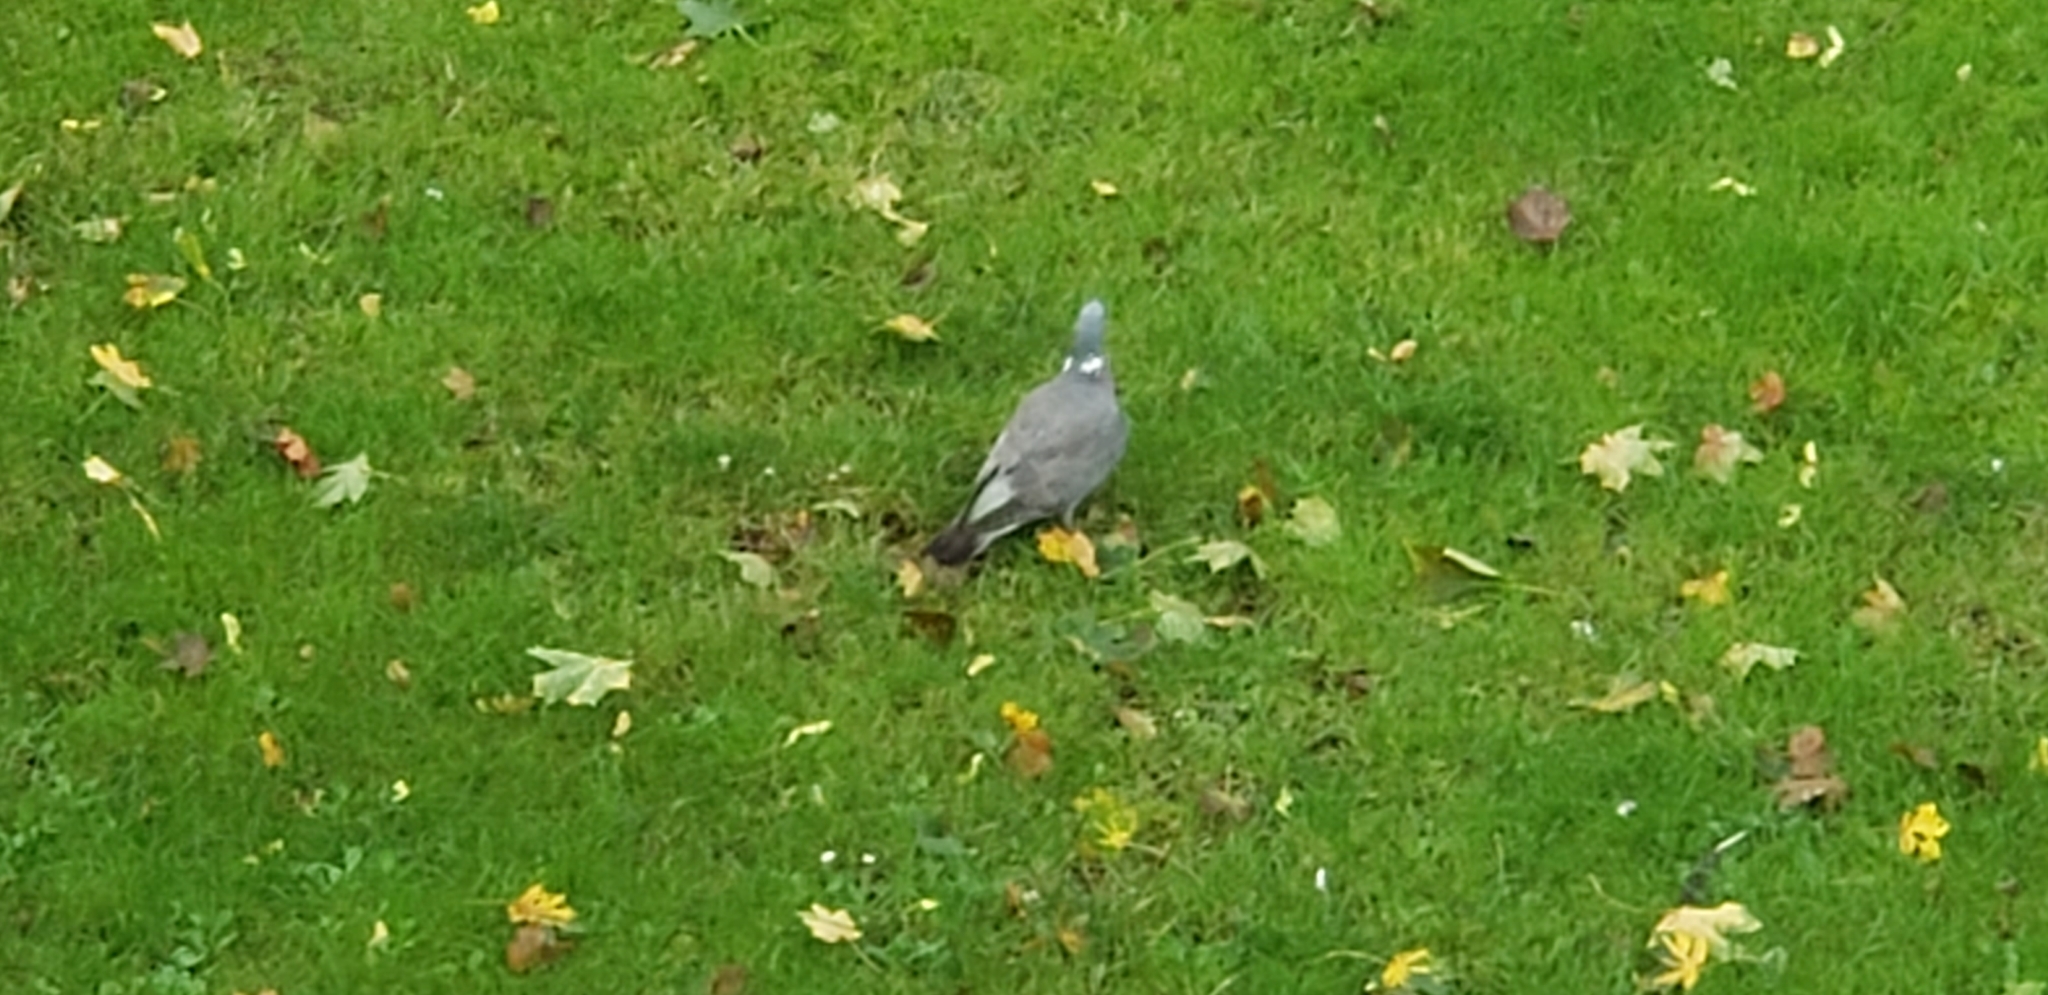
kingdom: Animalia
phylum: Chordata
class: Aves
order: Columbiformes
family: Columbidae
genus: Columba
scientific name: Columba palumbus
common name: Common wood pigeon
